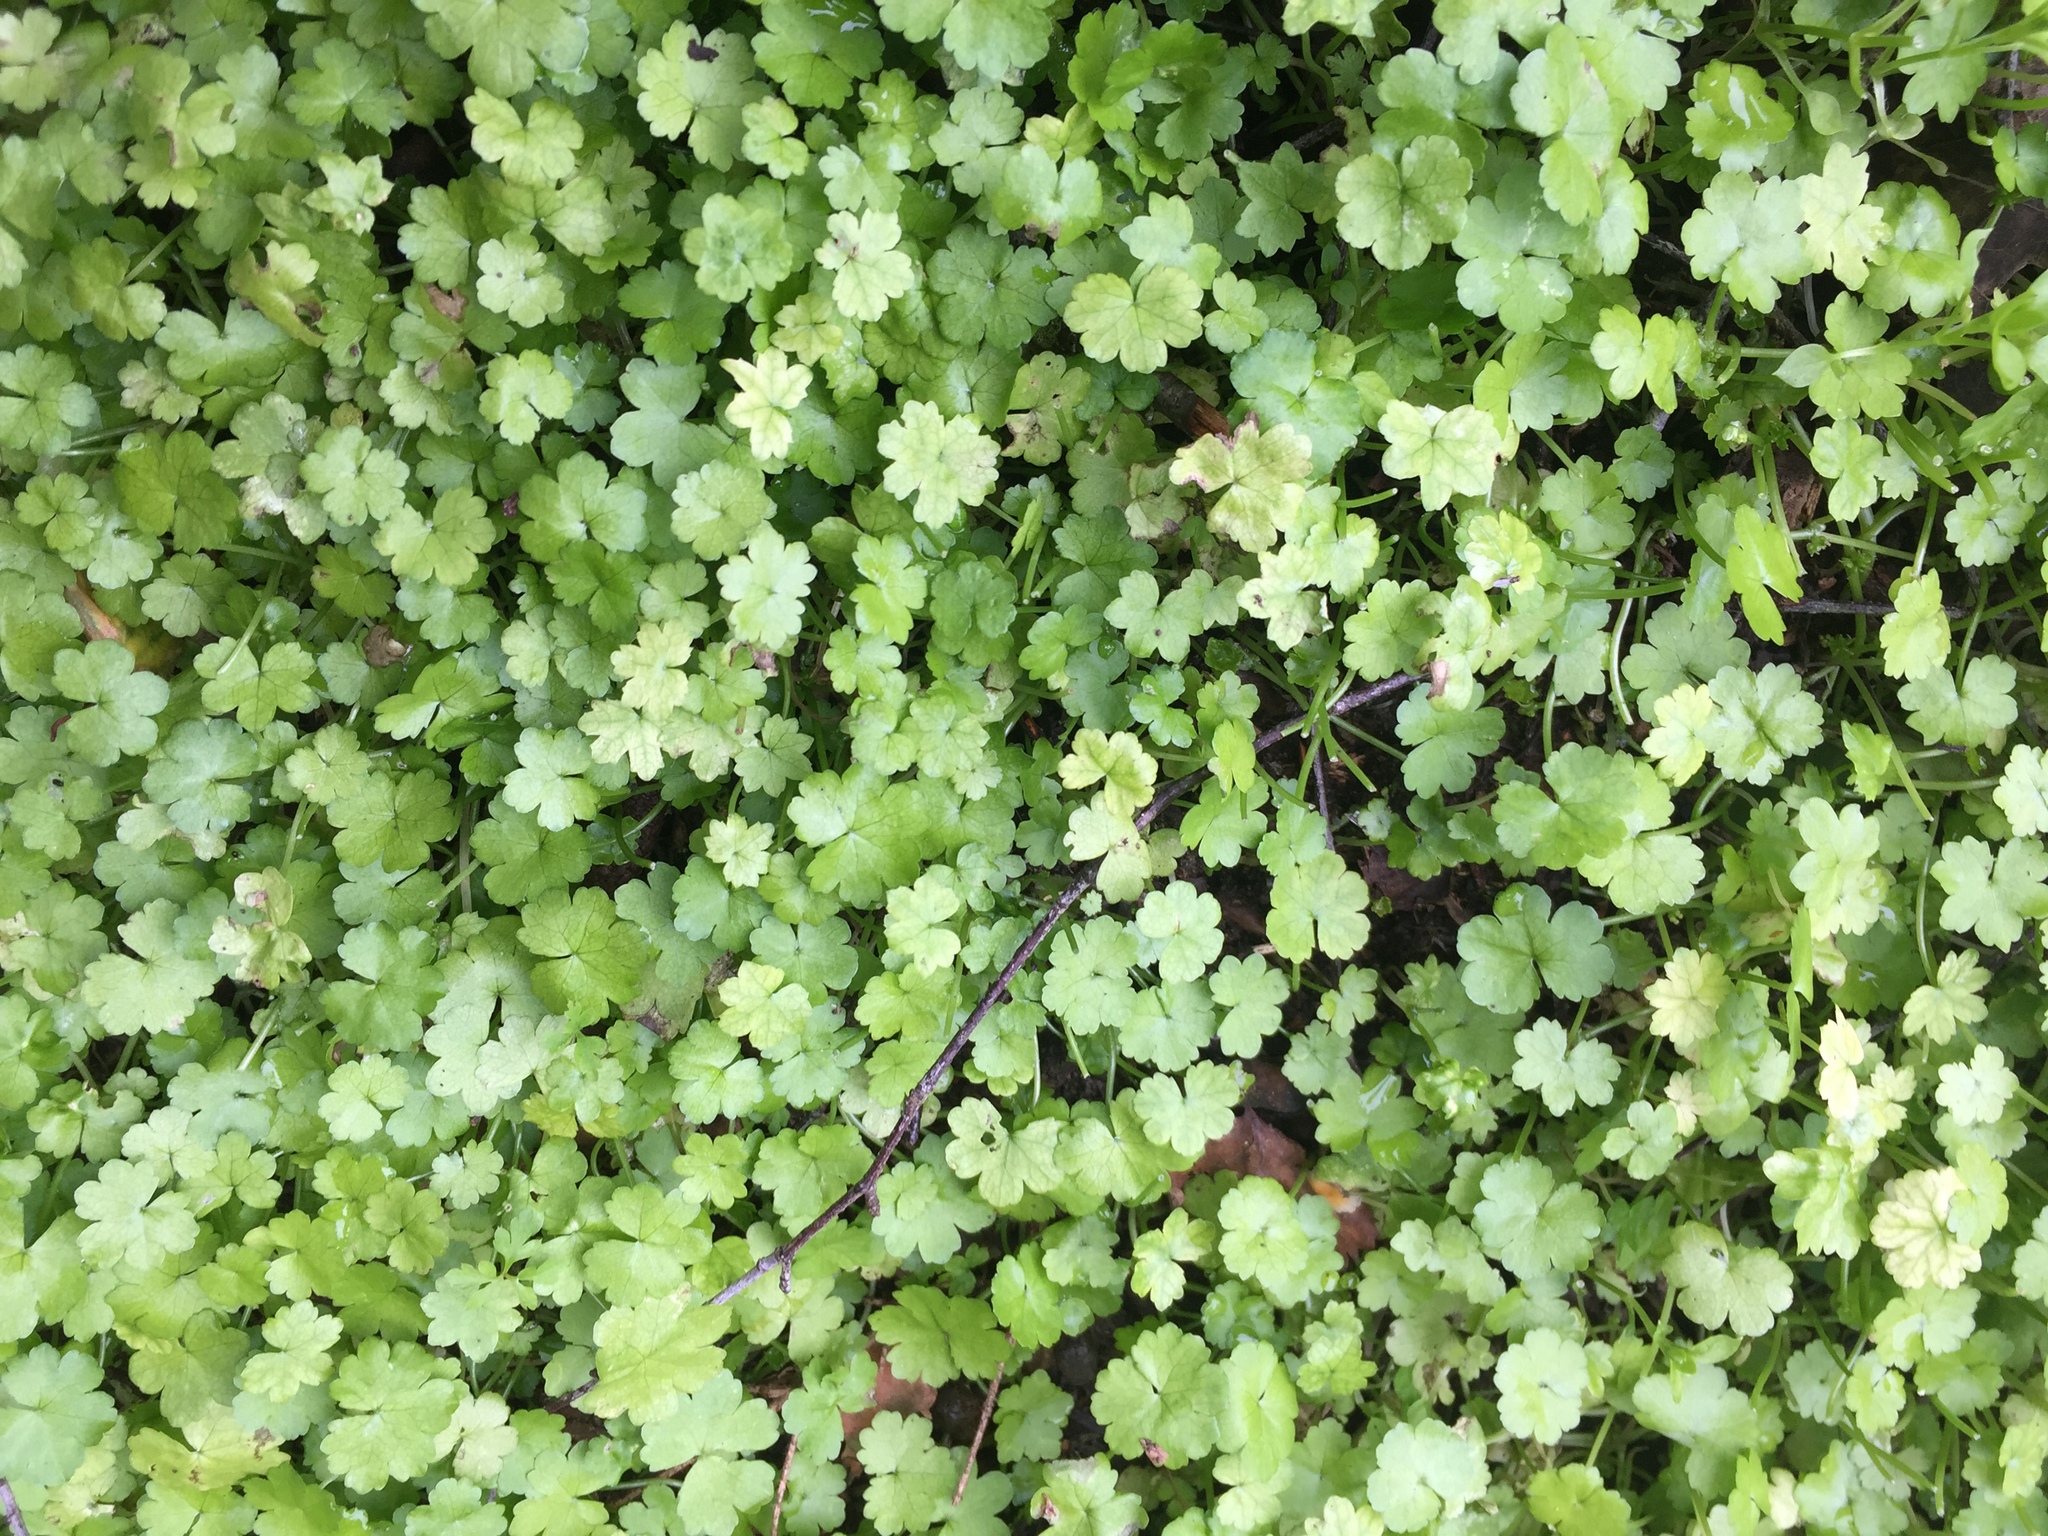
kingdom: Plantae
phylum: Tracheophyta
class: Magnoliopsida
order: Apiales
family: Araliaceae
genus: Hydrocotyle
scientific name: Hydrocotyle heteromeria
